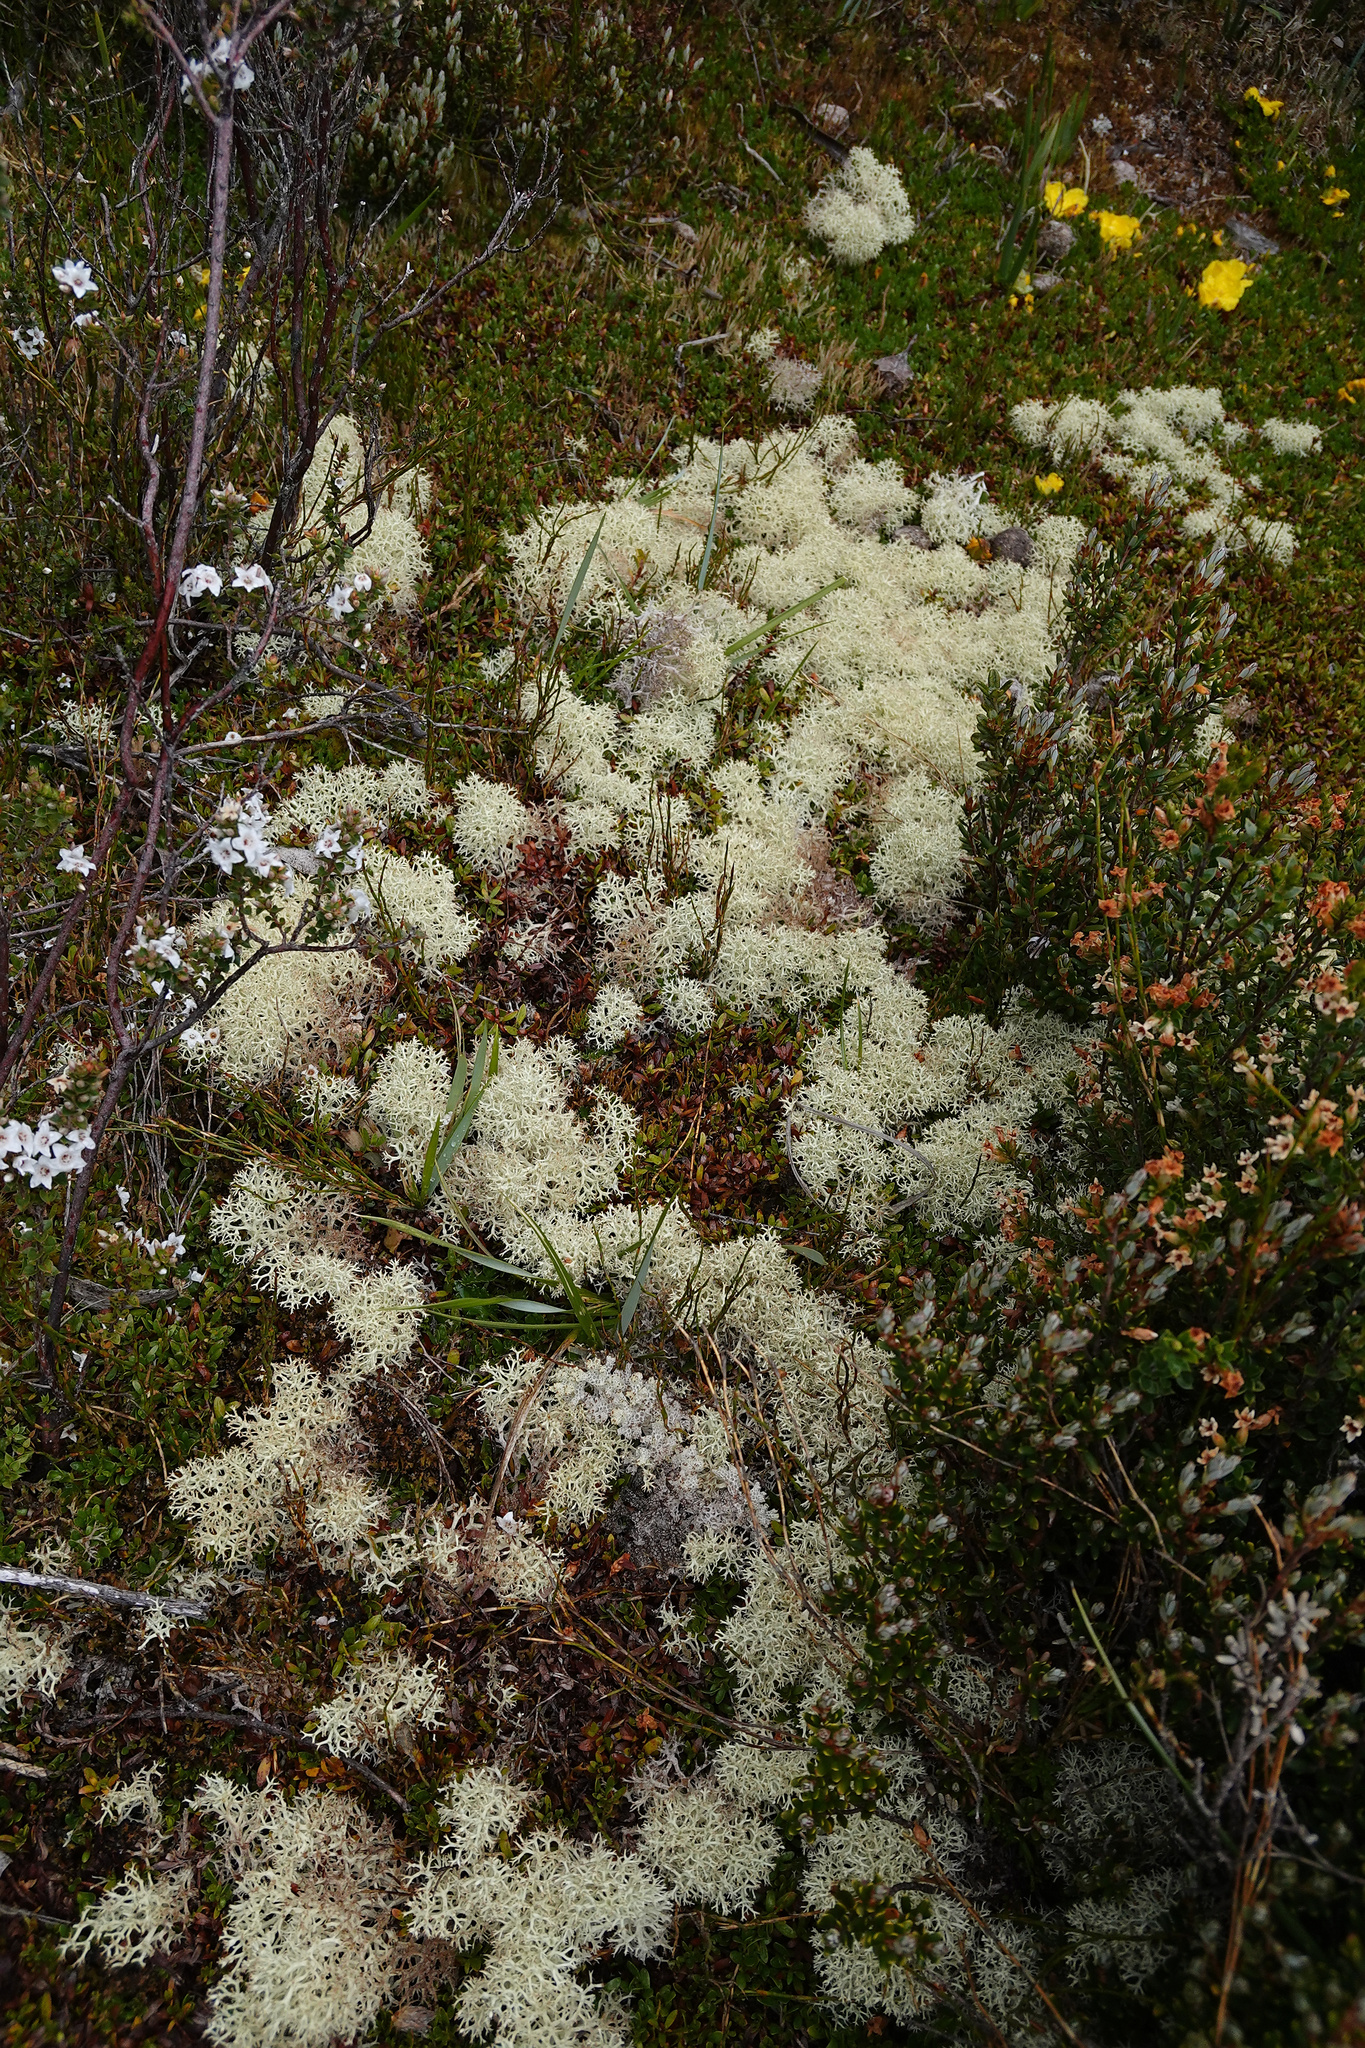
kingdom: Fungi
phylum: Ascomycota
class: Lecanoromycetes
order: Lecanorales
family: Cladoniaceae
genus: Cladonia
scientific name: Cladonia confusa
